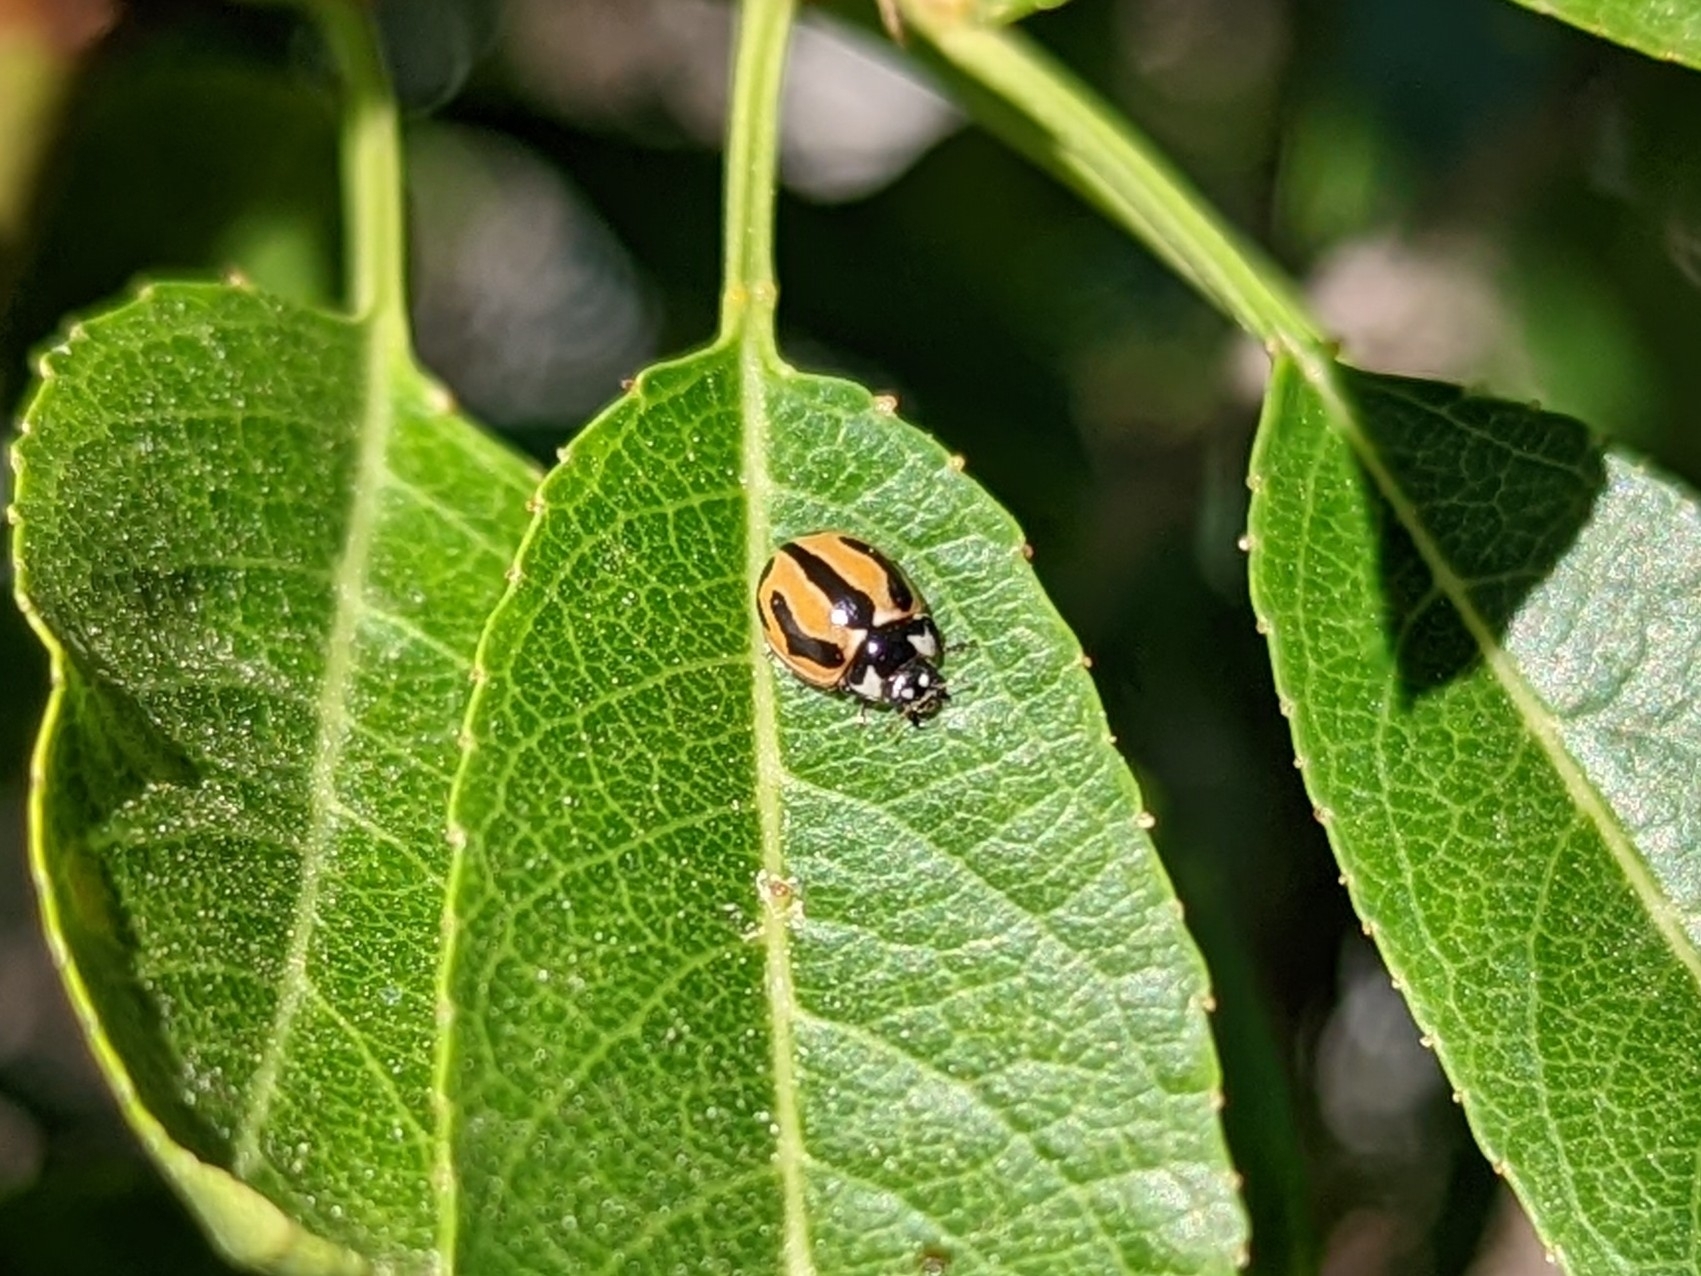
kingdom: Animalia
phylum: Arthropoda
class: Insecta
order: Coleoptera
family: Coccinellidae
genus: Coccinella
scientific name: Coccinella miranda
